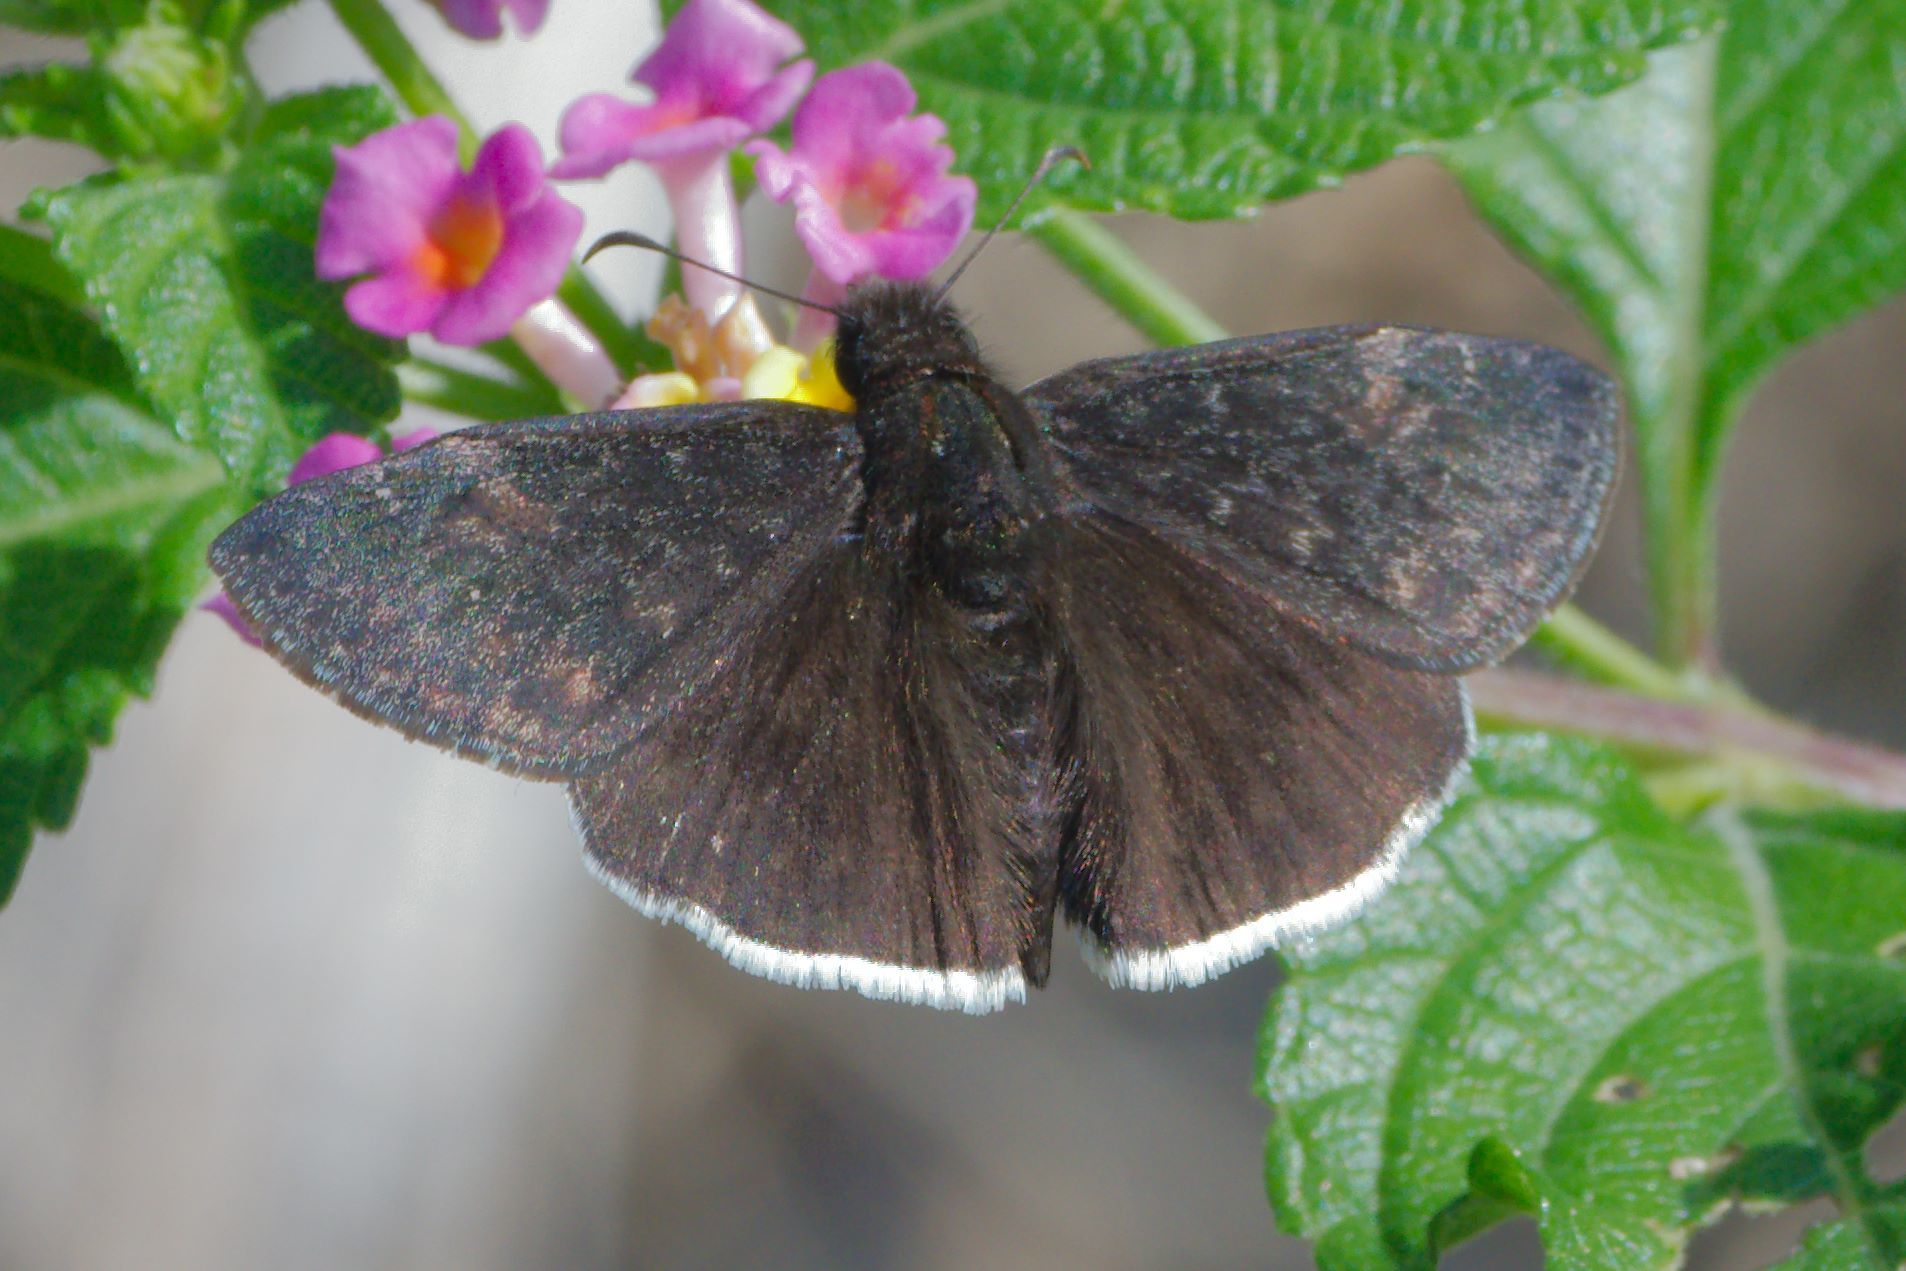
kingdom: Animalia
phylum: Arthropoda
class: Insecta
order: Lepidoptera
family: Hesperiidae
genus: Erynnis
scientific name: Erynnis funeralis
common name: Funereal duskywing
